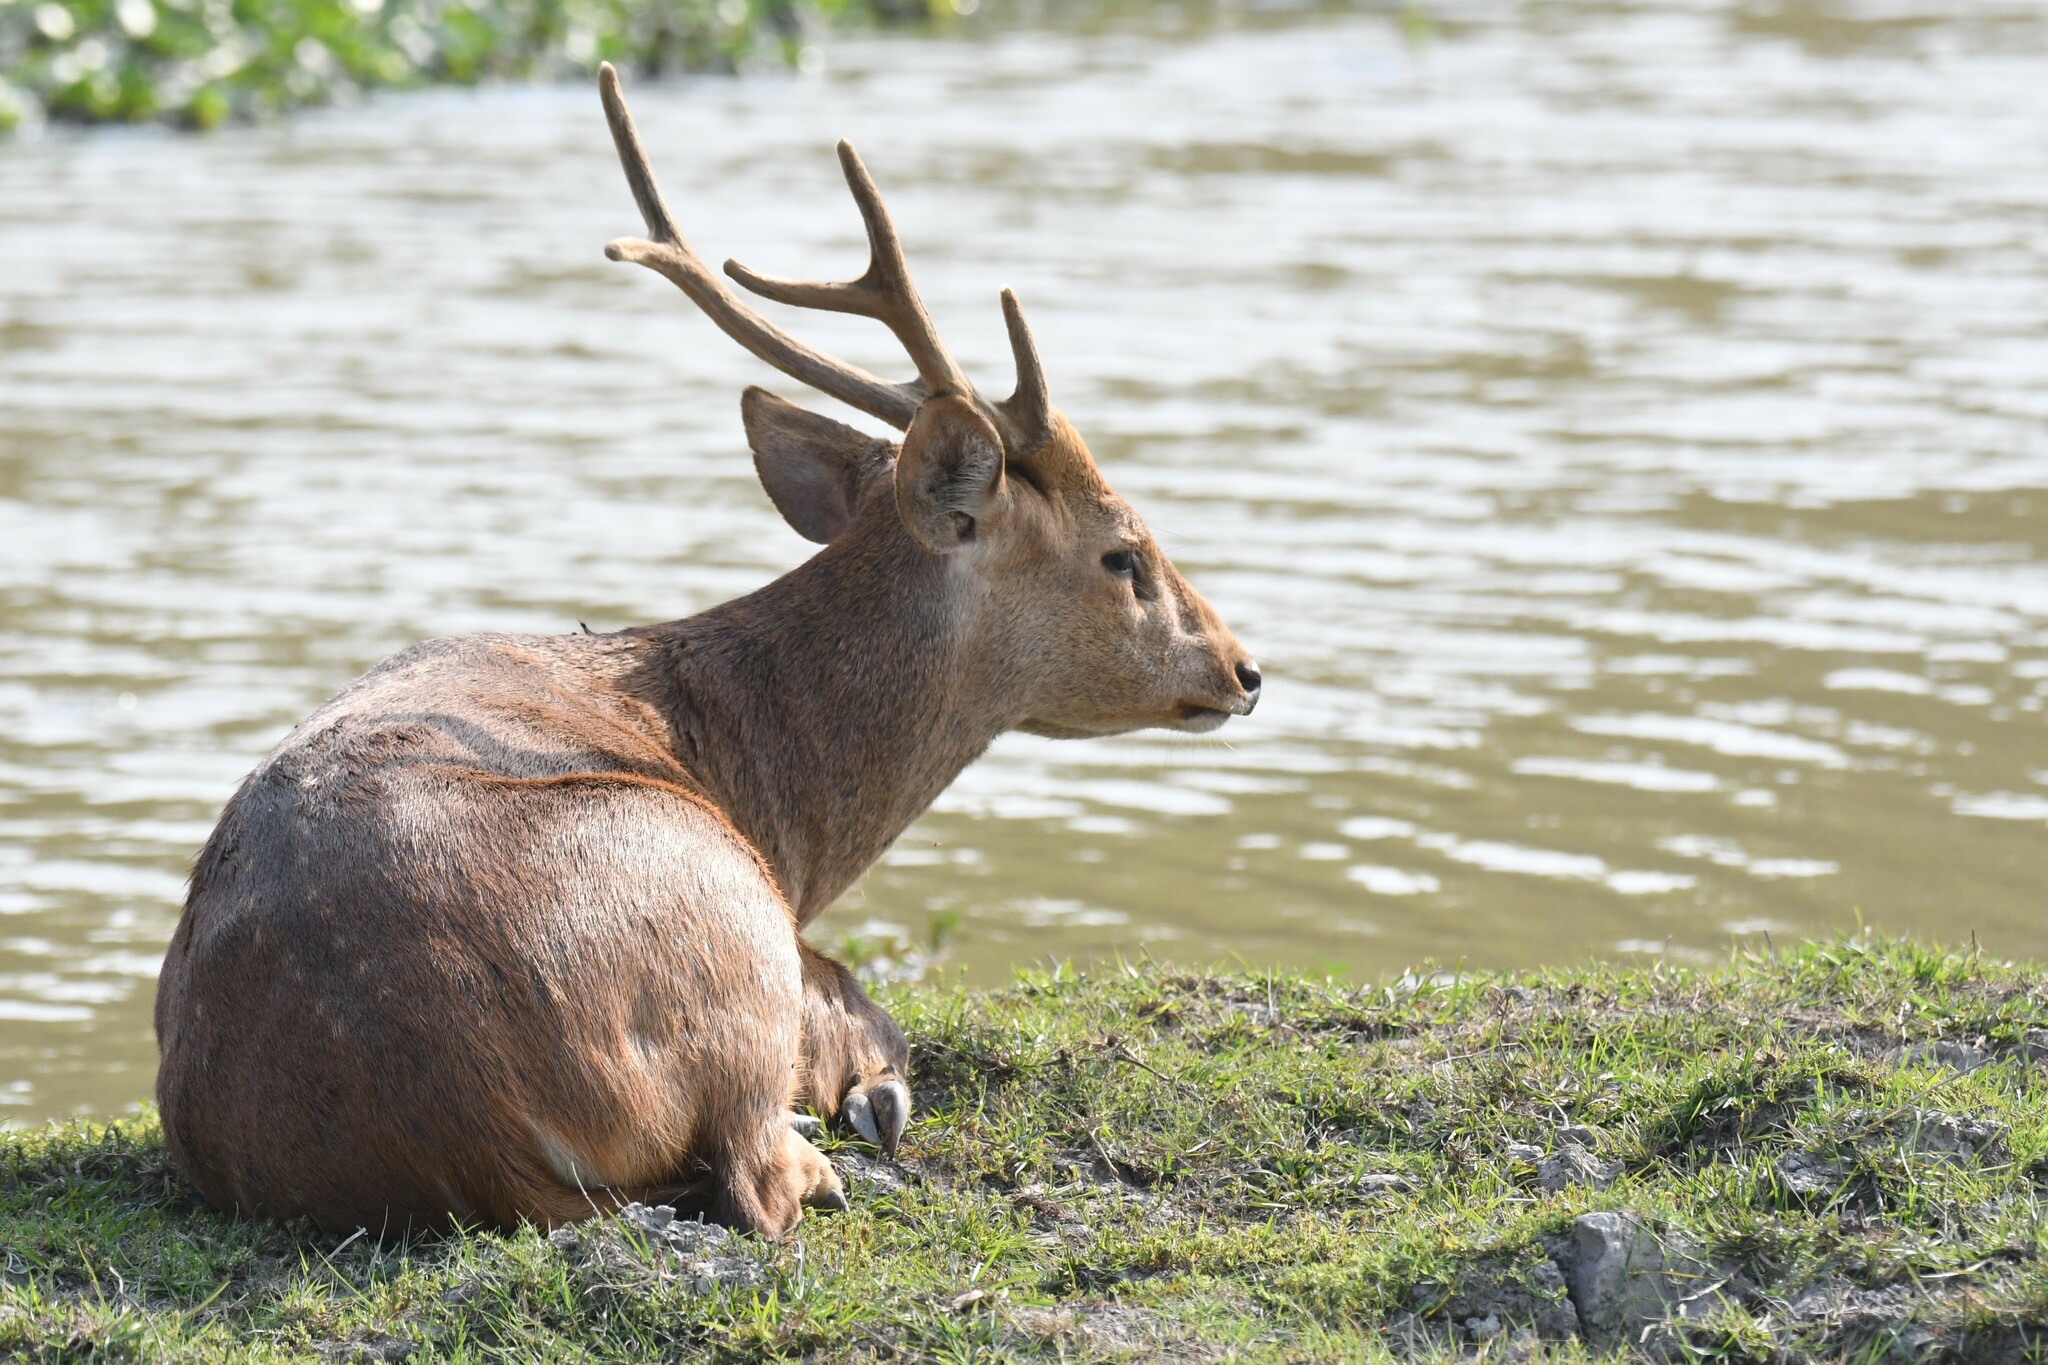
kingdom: Animalia
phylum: Chordata
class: Mammalia
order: Artiodactyla
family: Cervidae
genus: Axis
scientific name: Axis porcinus
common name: Hog deer
